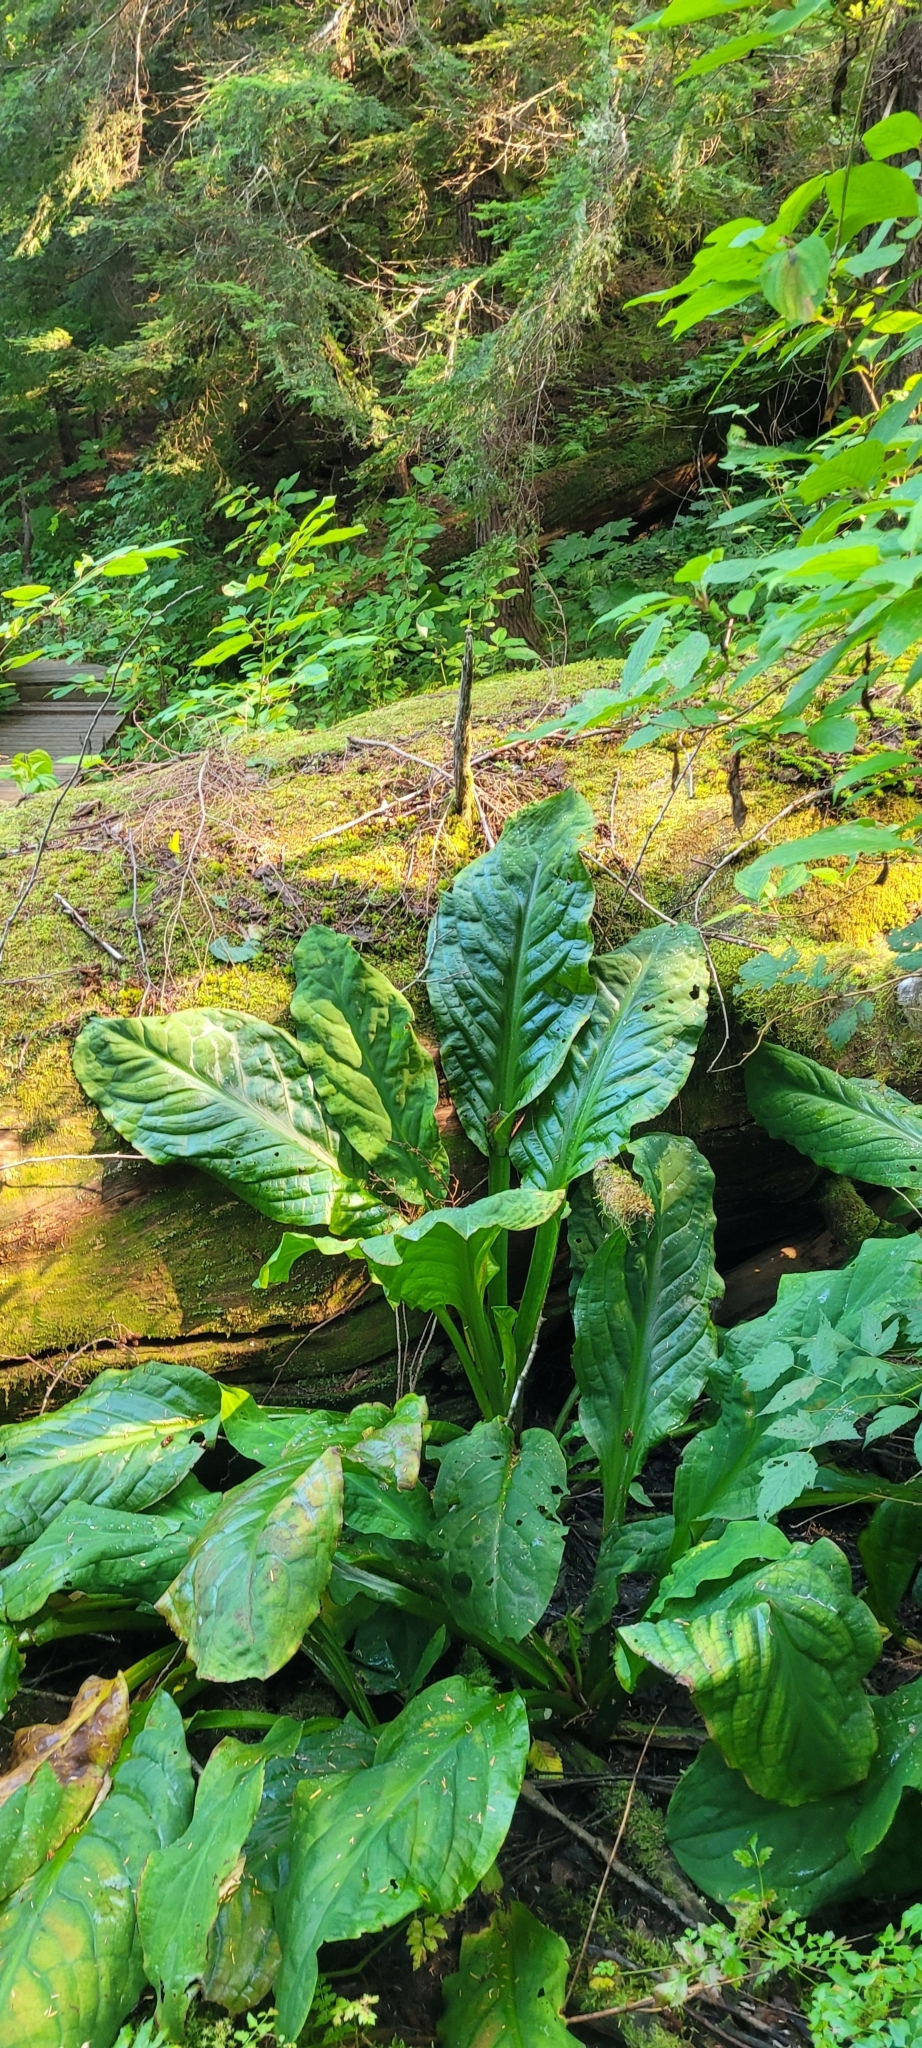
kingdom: Plantae
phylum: Tracheophyta
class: Liliopsida
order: Alismatales
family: Araceae
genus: Lysichiton
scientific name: Lysichiton americanus
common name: American skunk cabbage
